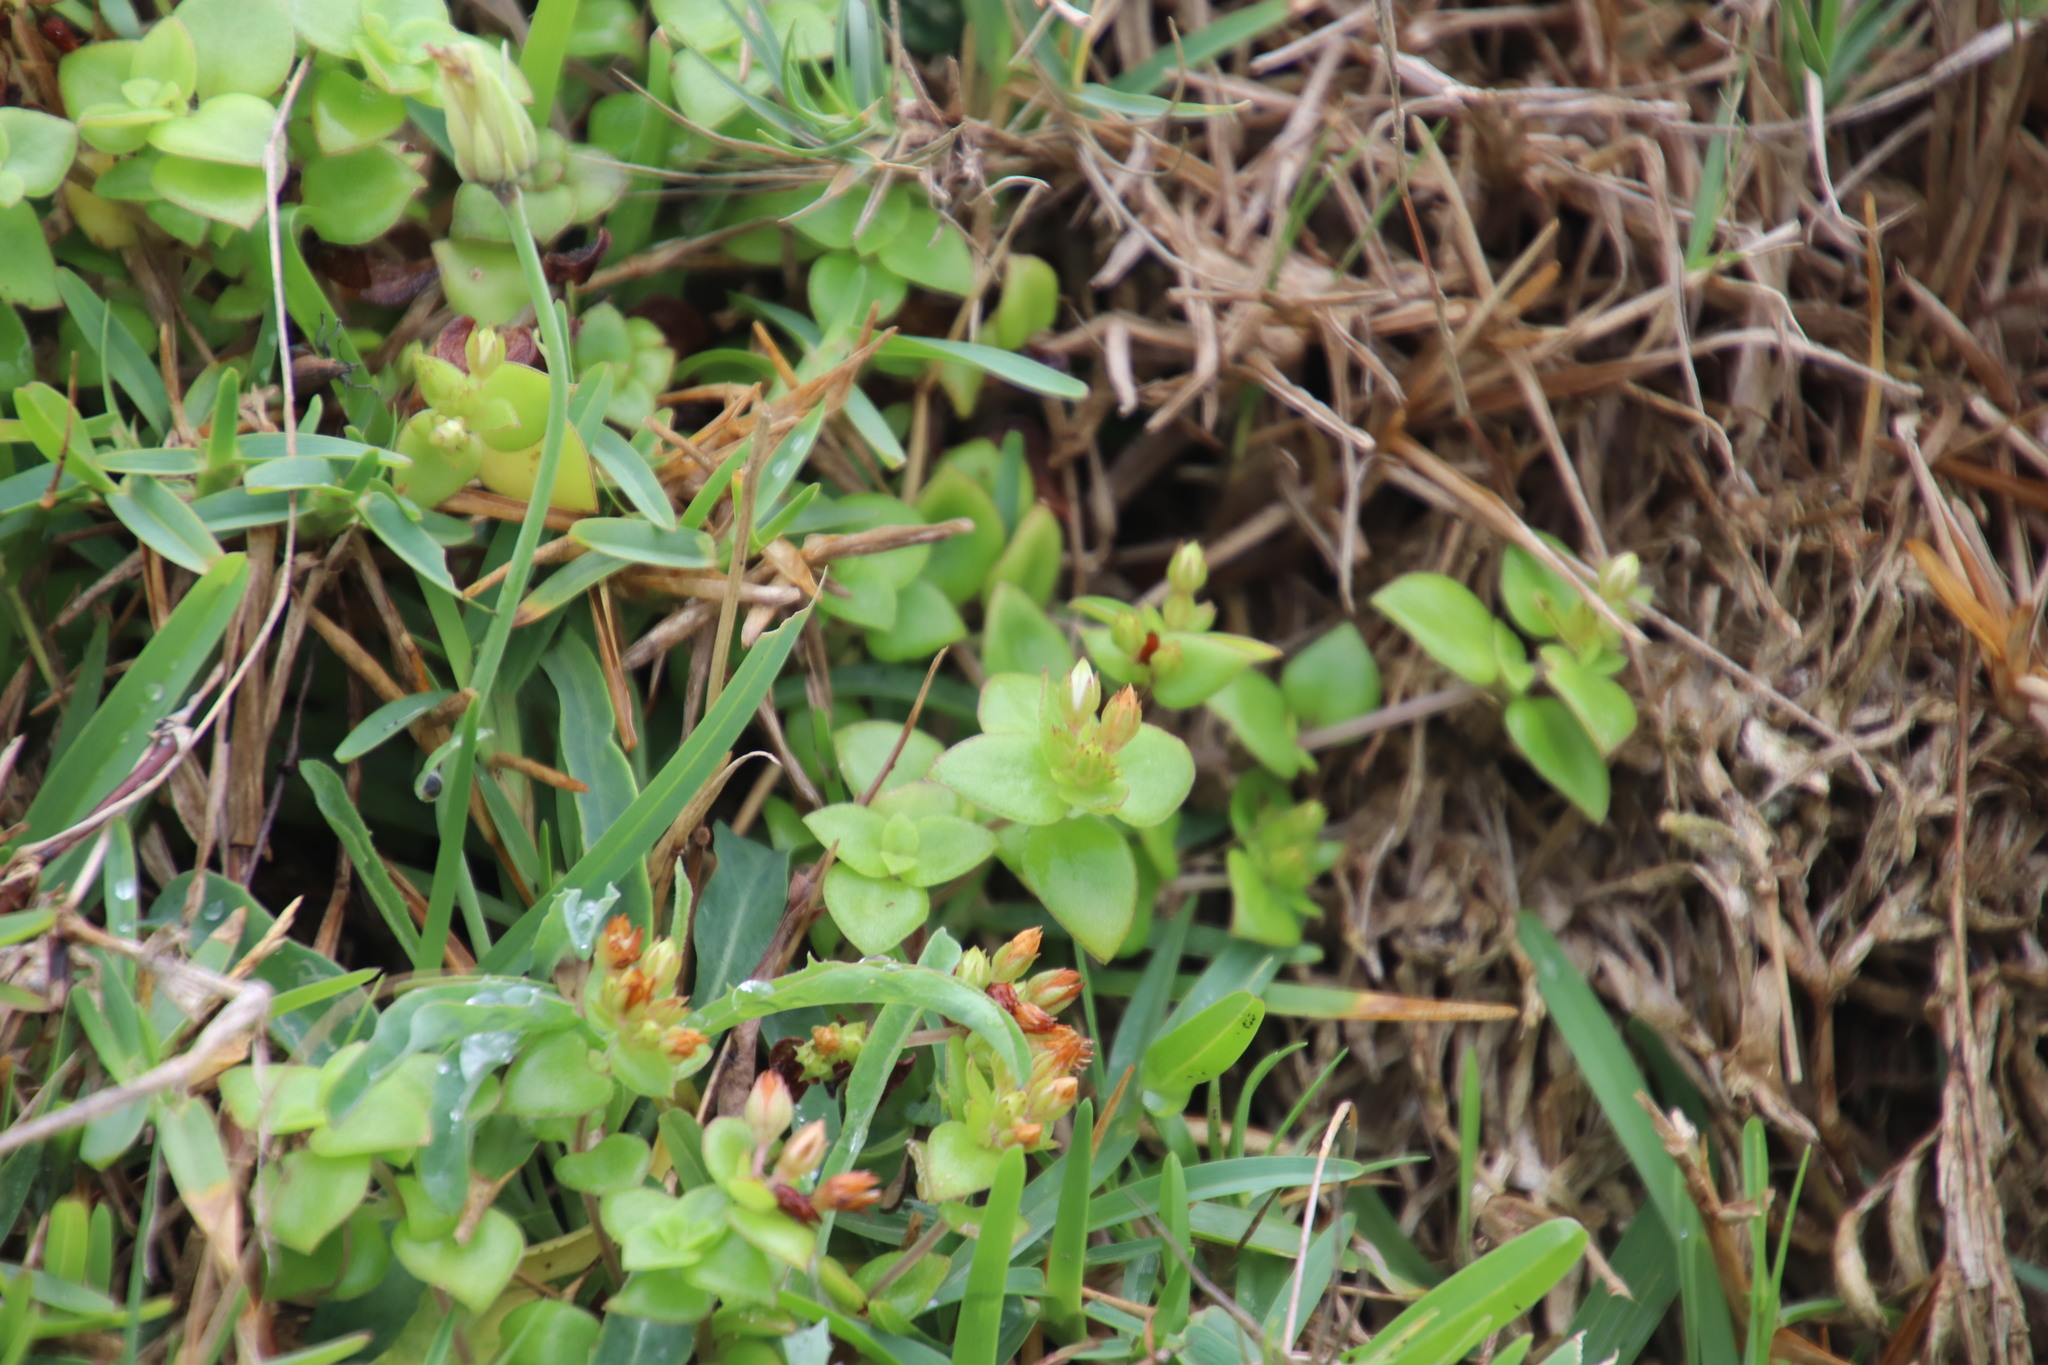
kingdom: Plantae
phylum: Tracheophyta
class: Magnoliopsida
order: Saxifragales
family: Crassulaceae
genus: Crassula
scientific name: Crassula pellucida
